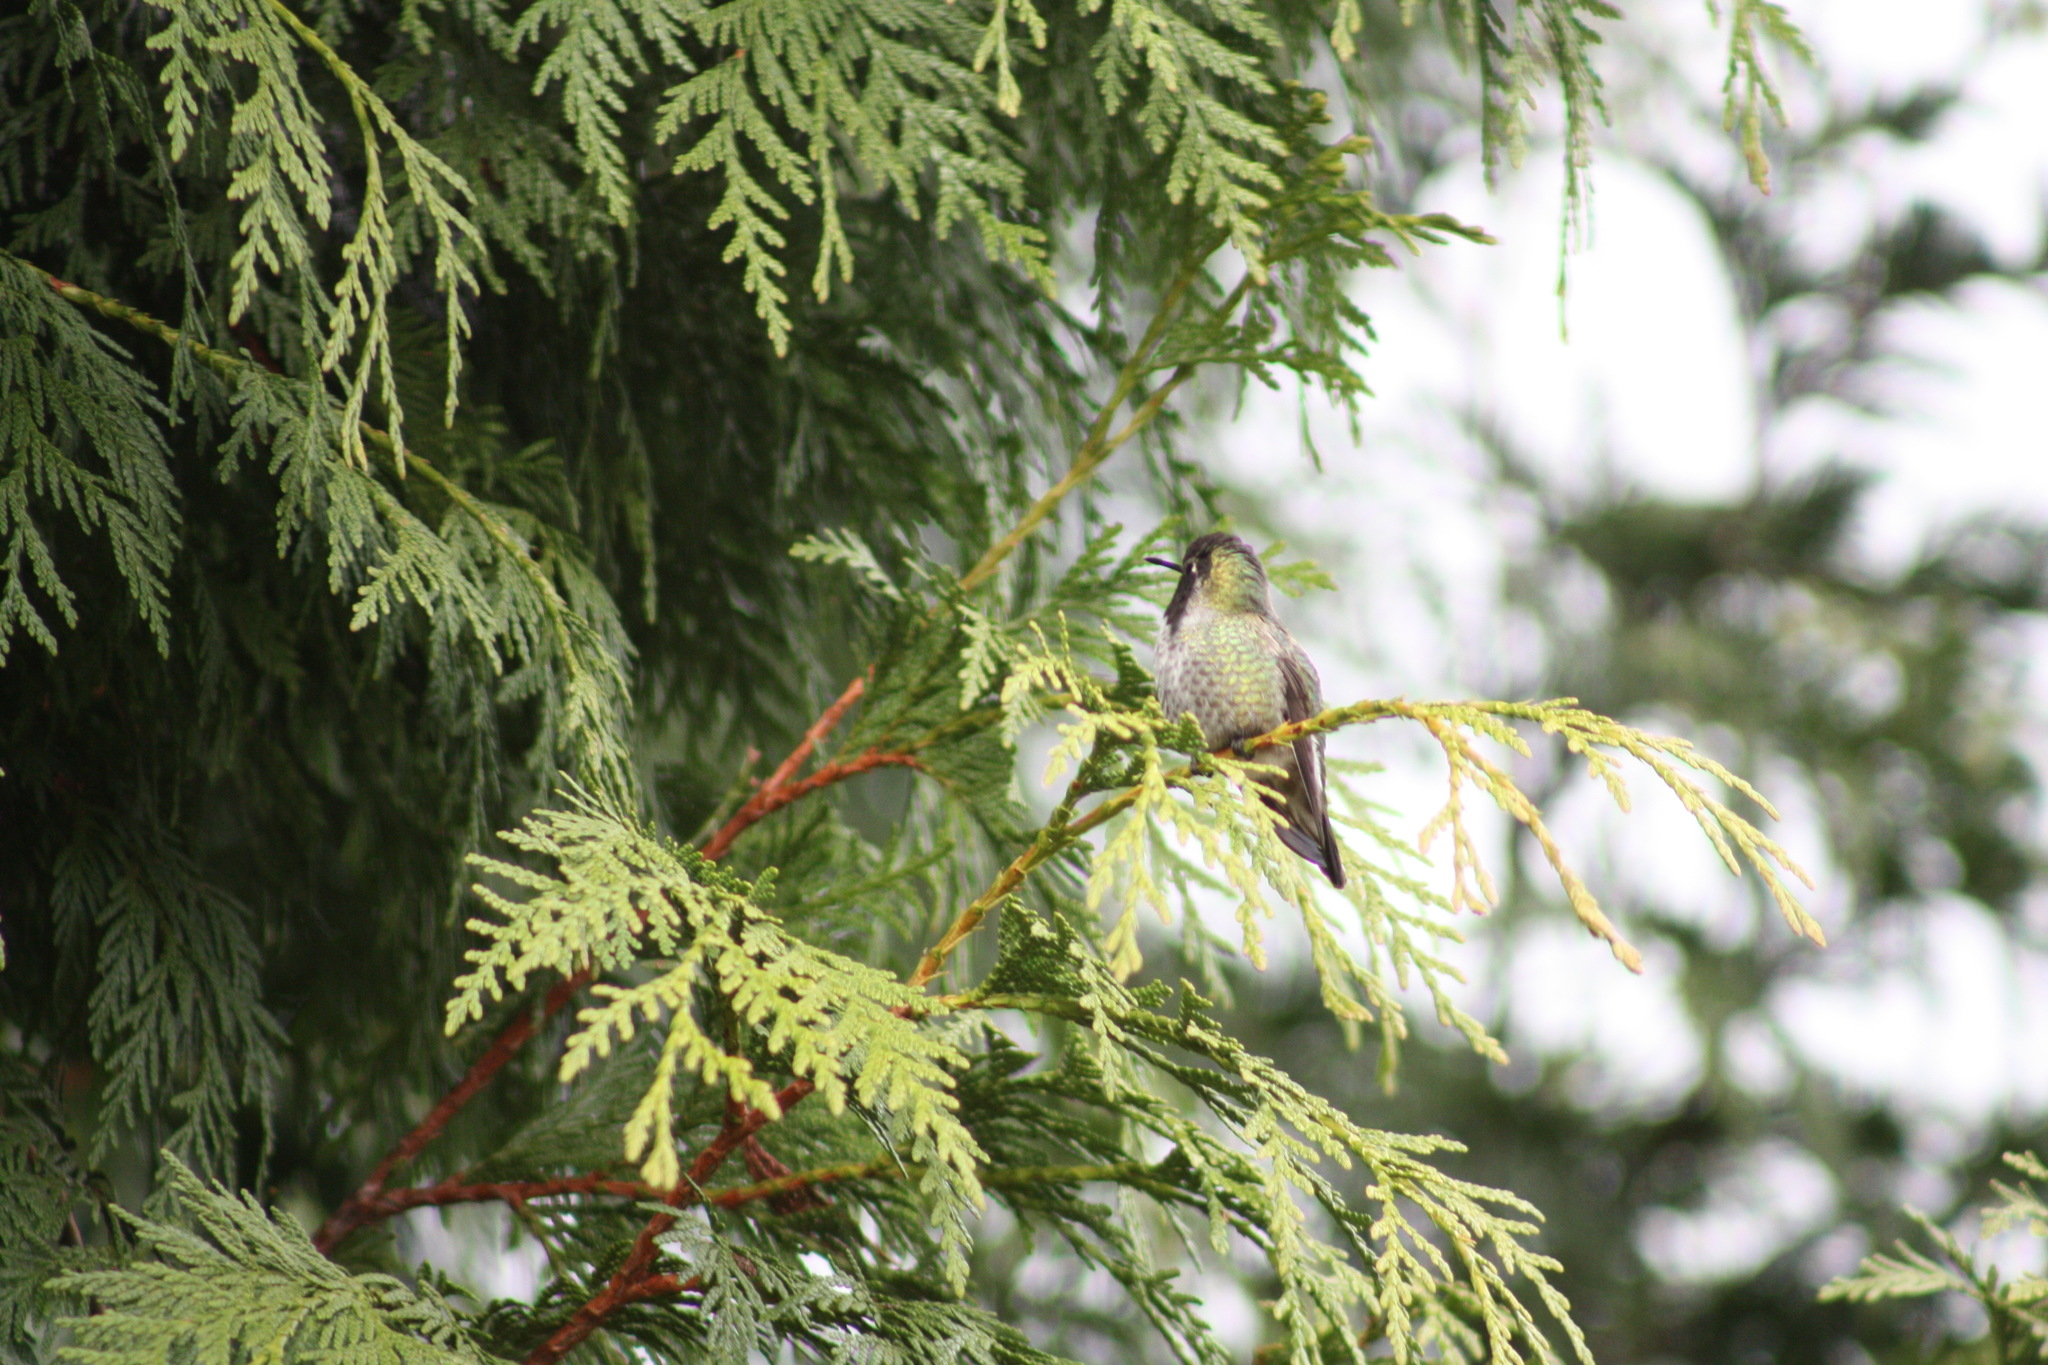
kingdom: Animalia
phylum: Chordata
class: Aves
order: Apodiformes
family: Trochilidae
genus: Calypte
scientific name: Calypte anna
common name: Anna's hummingbird
